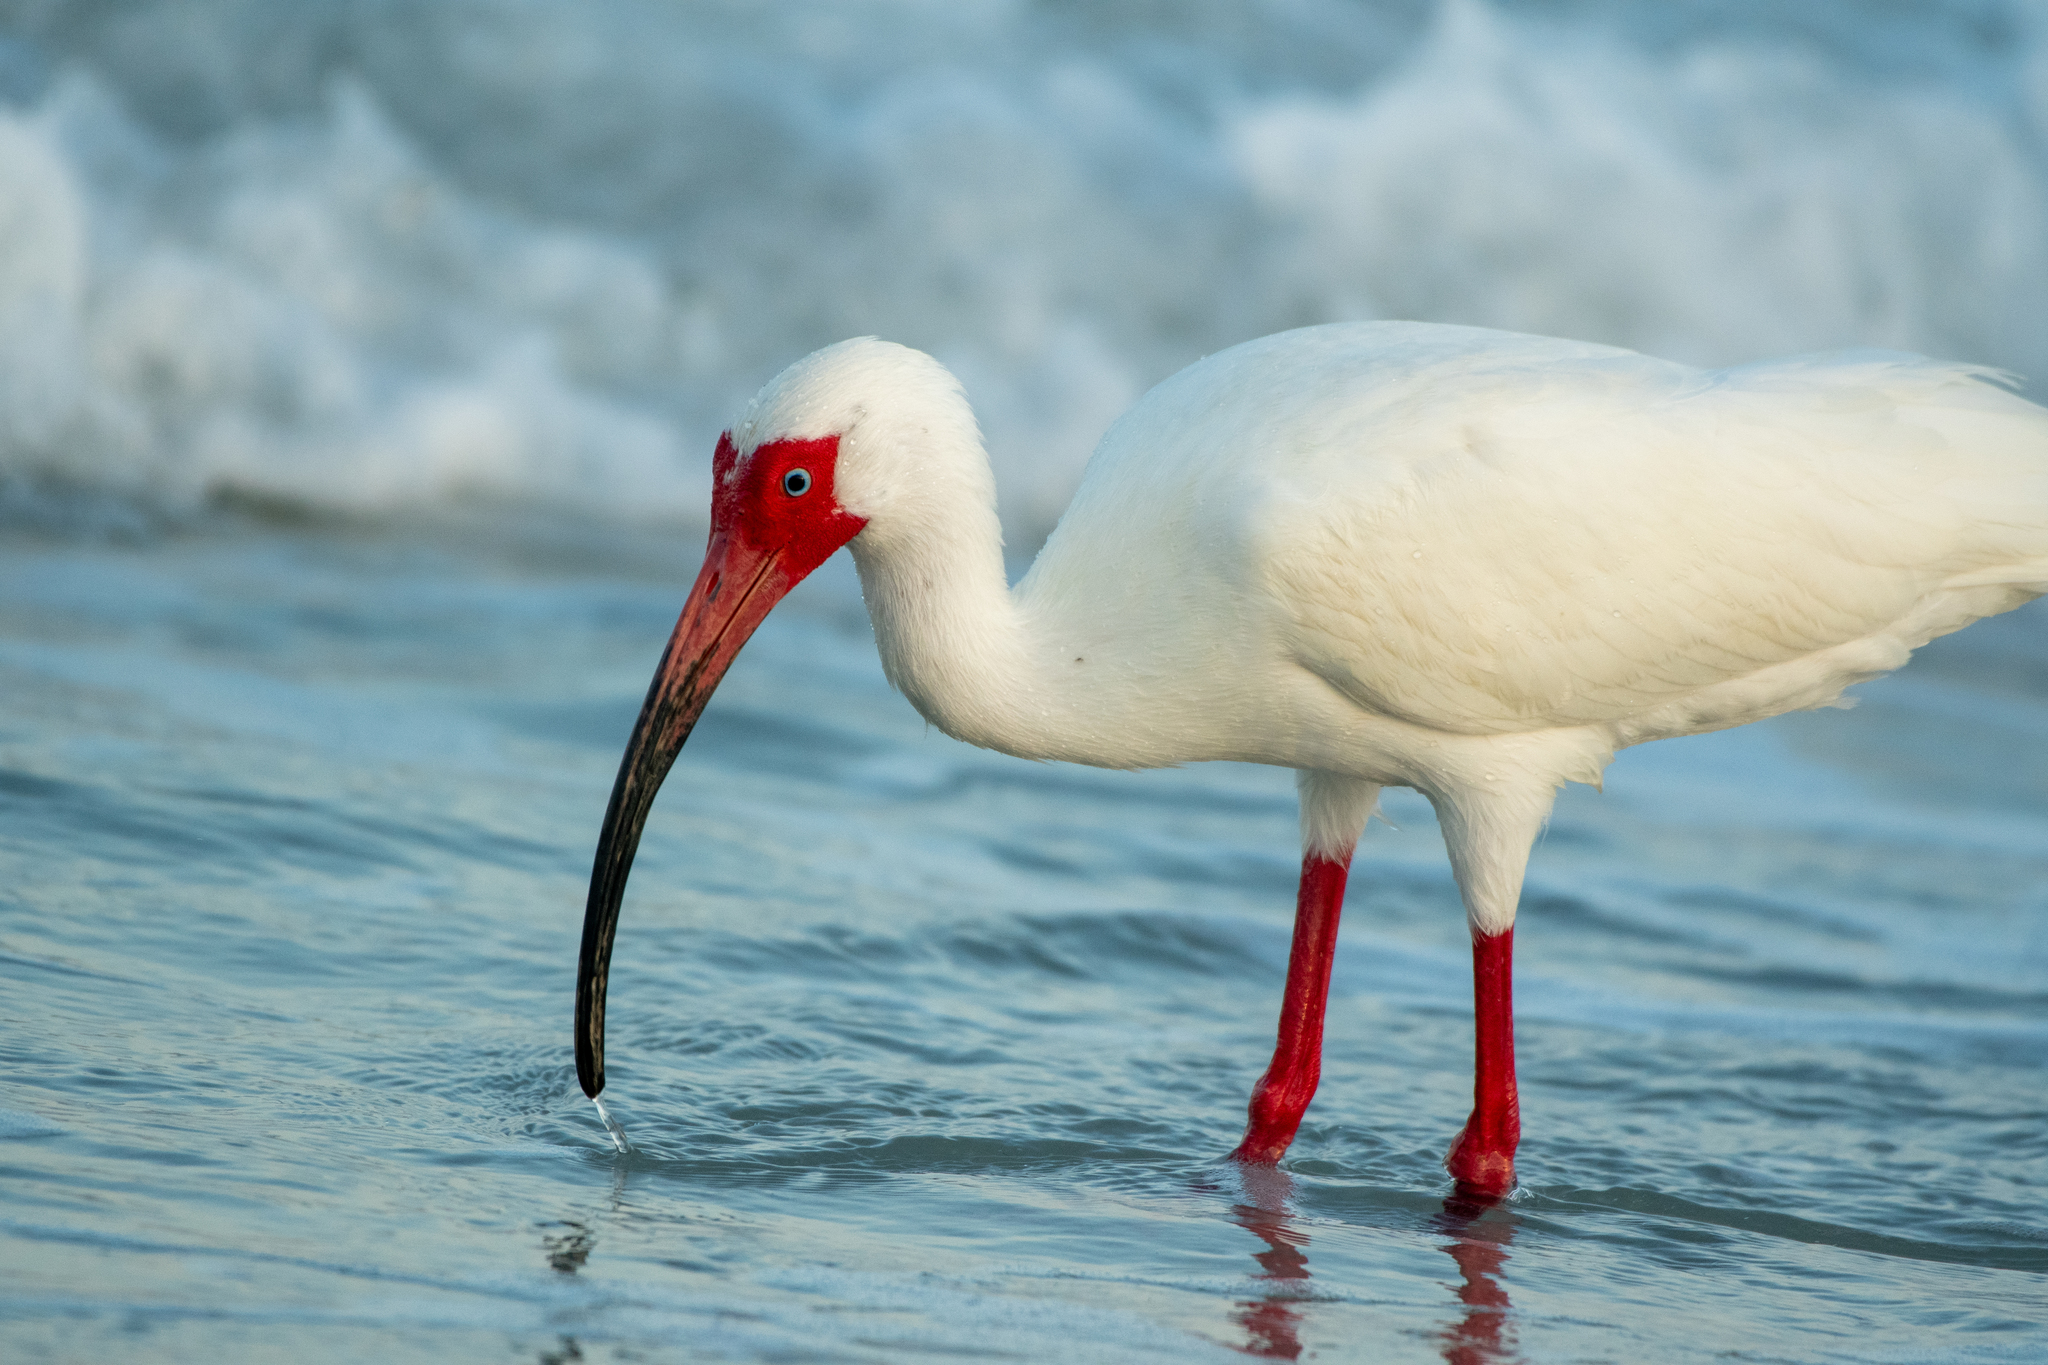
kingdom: Animalia
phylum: Chordata
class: Aves
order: Pelecaniformes
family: Threskiornithidae
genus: Eudocimus
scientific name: Eudocimus albus
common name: White ibis
